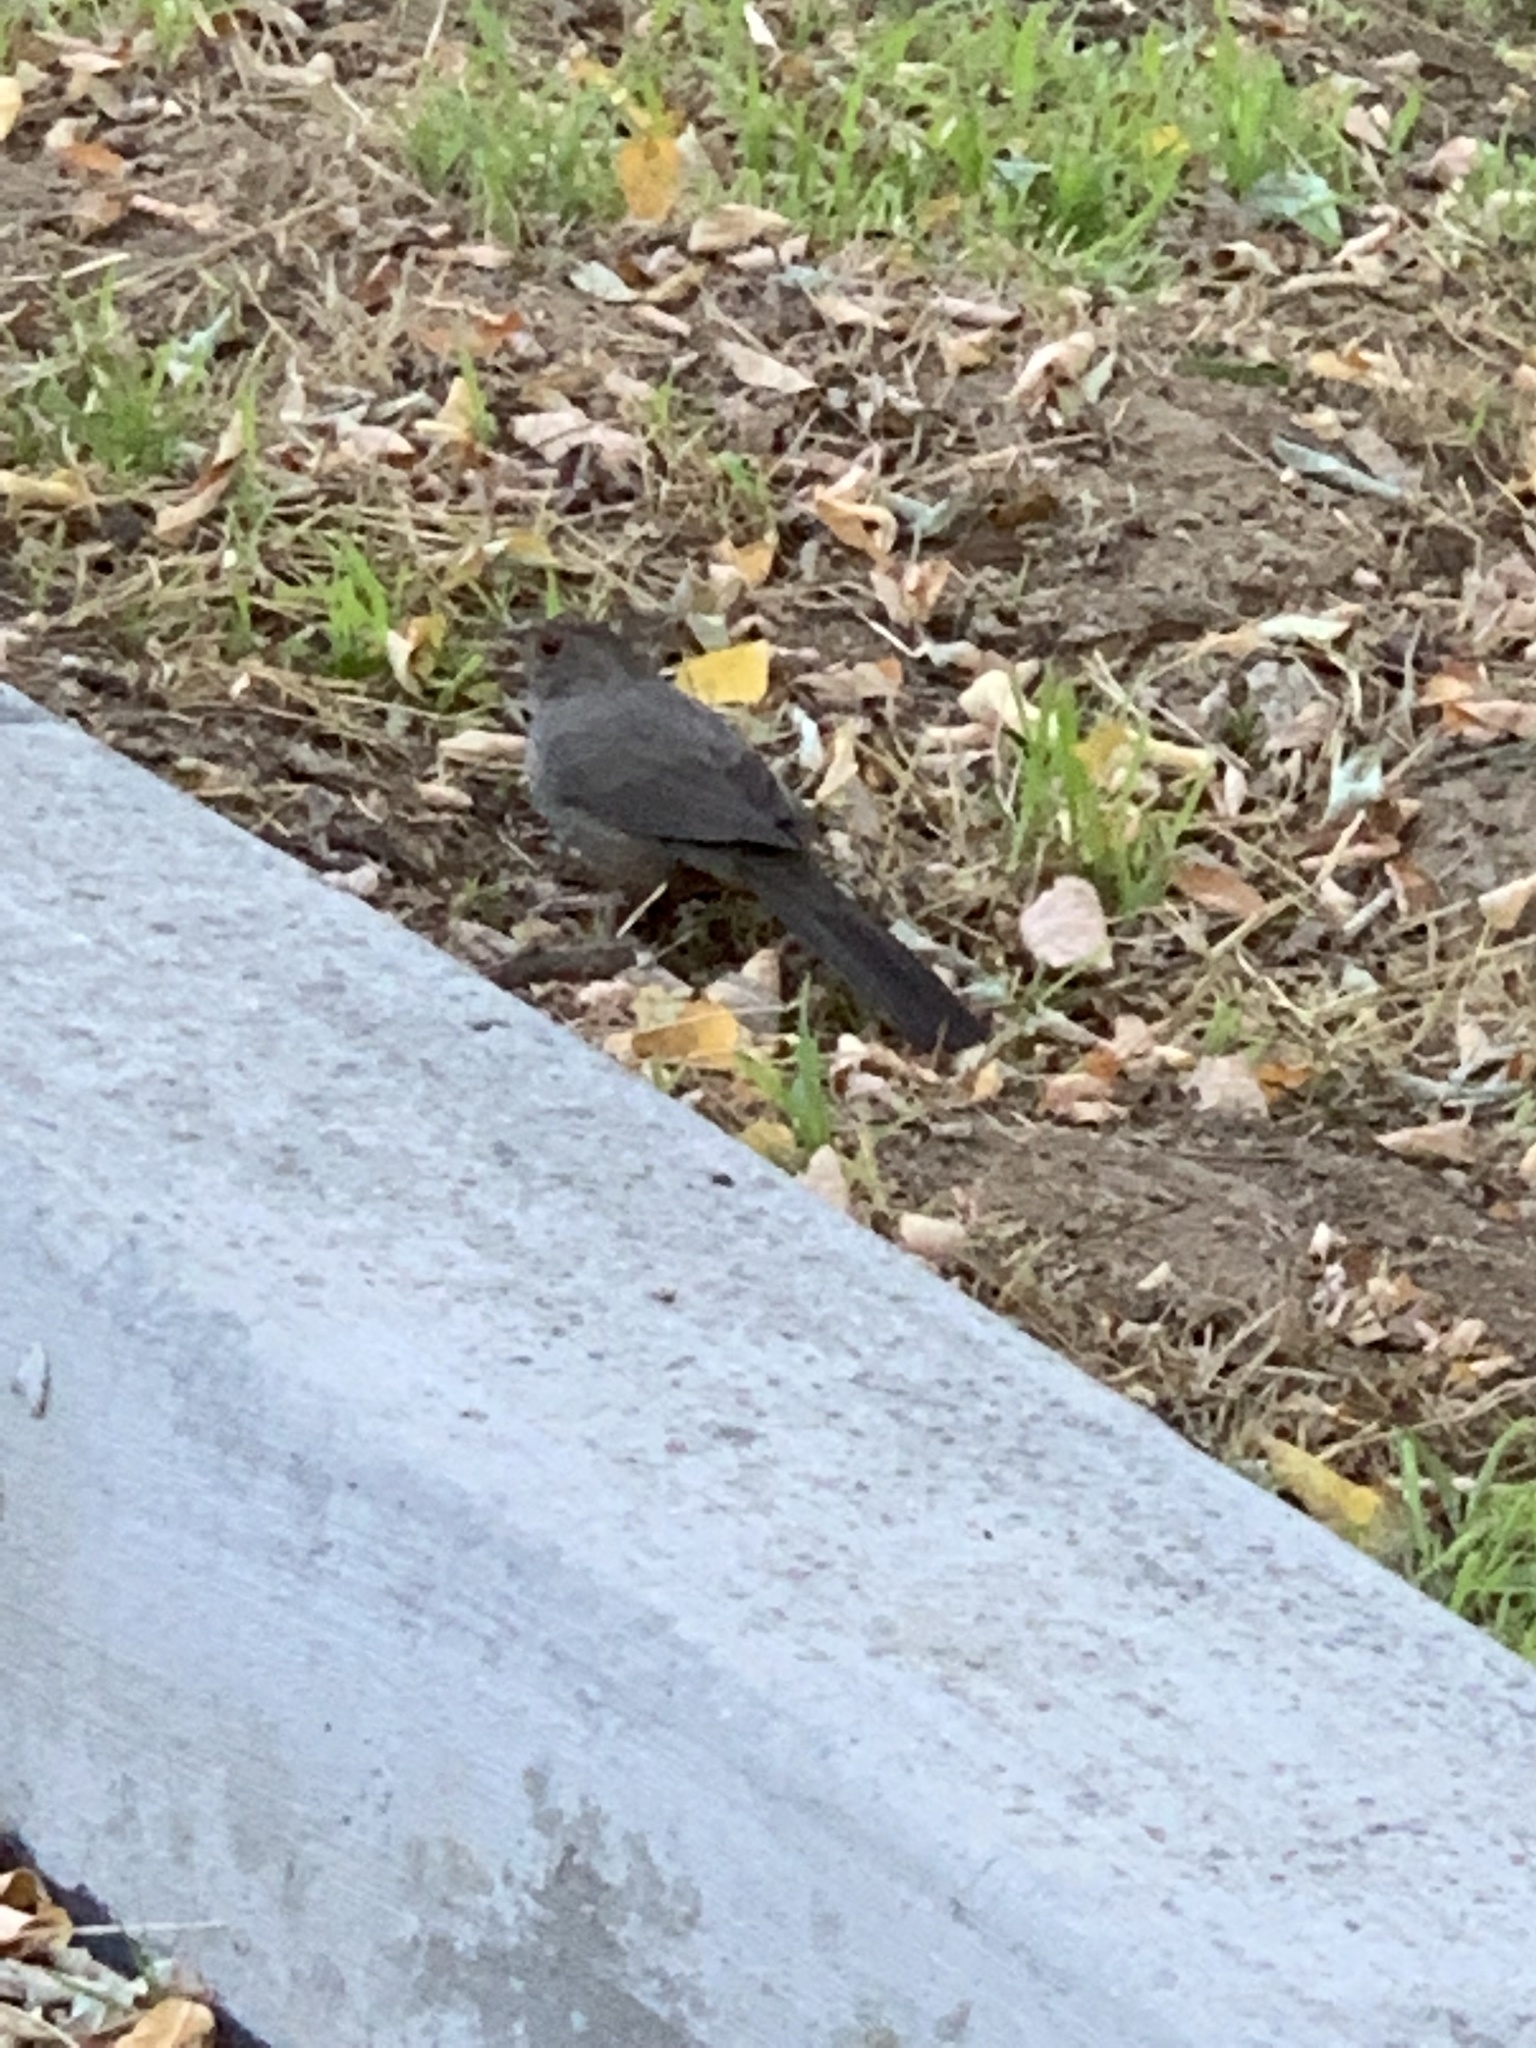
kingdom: Animalia
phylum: Chordata
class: Aves
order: Passeriformes
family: Passerellidae
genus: Melozone
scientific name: Melozone crissalis
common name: California towhee
